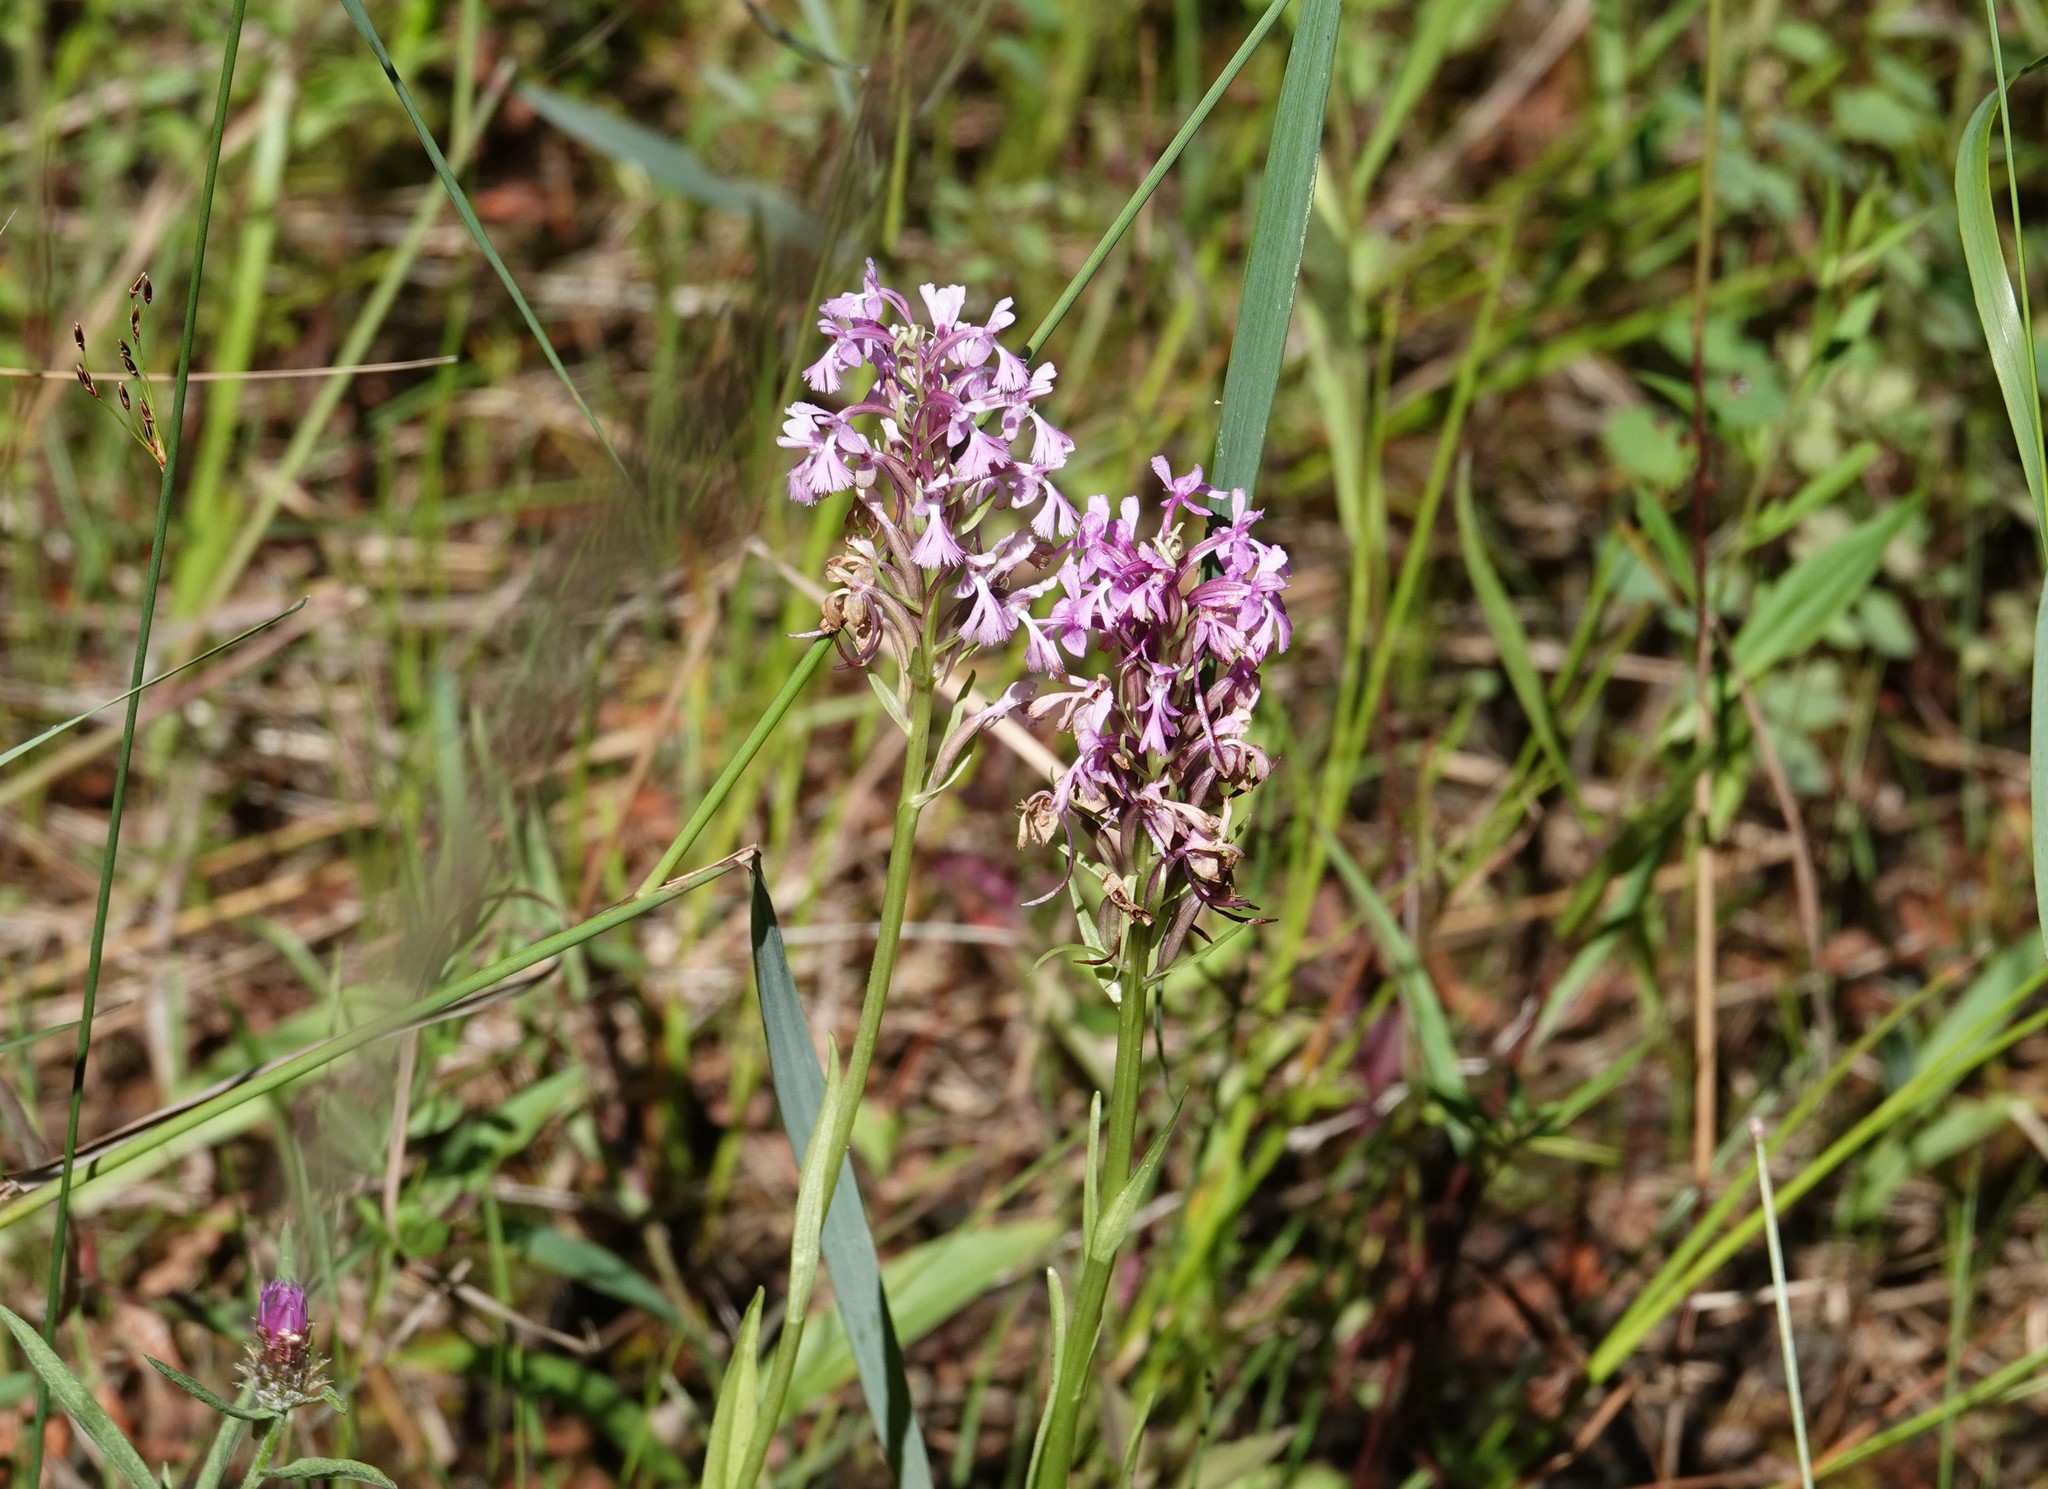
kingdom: Plantae
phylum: Tracheophyta
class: Liliopsida
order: Asparagales
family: Orchidaceae
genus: Platanthera
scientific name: Platanthera psycodes
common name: Lesser purple fringed orchid
